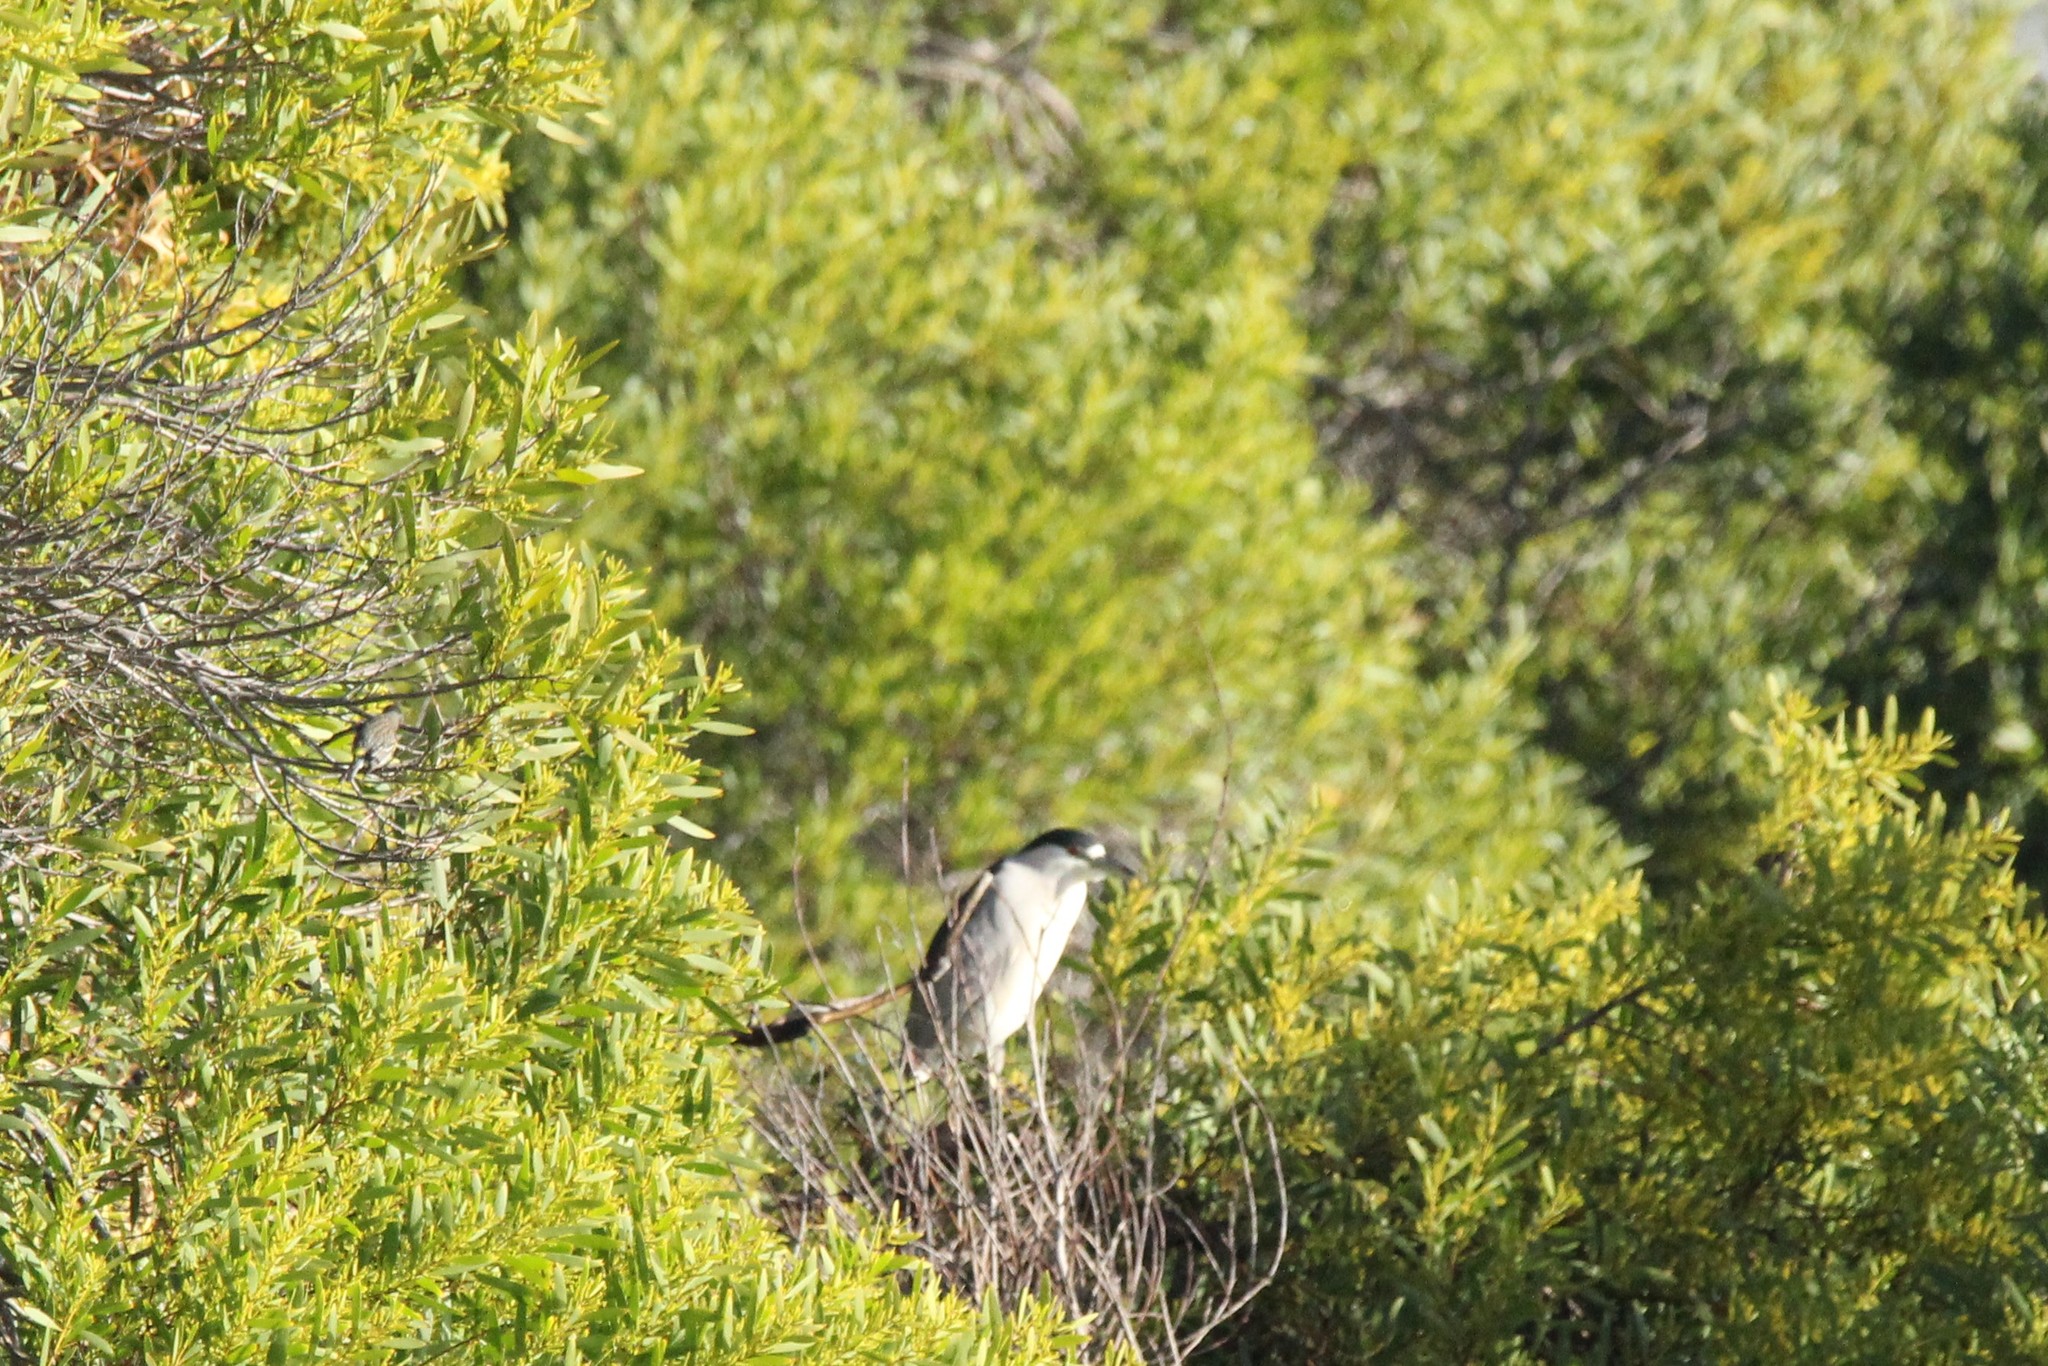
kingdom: Animalia
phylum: Chordata
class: Aves
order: Pelecaniformes
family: Ardeidae
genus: Nycticorax
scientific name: Nycticorax nycticorax
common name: Black-crowned night heron
